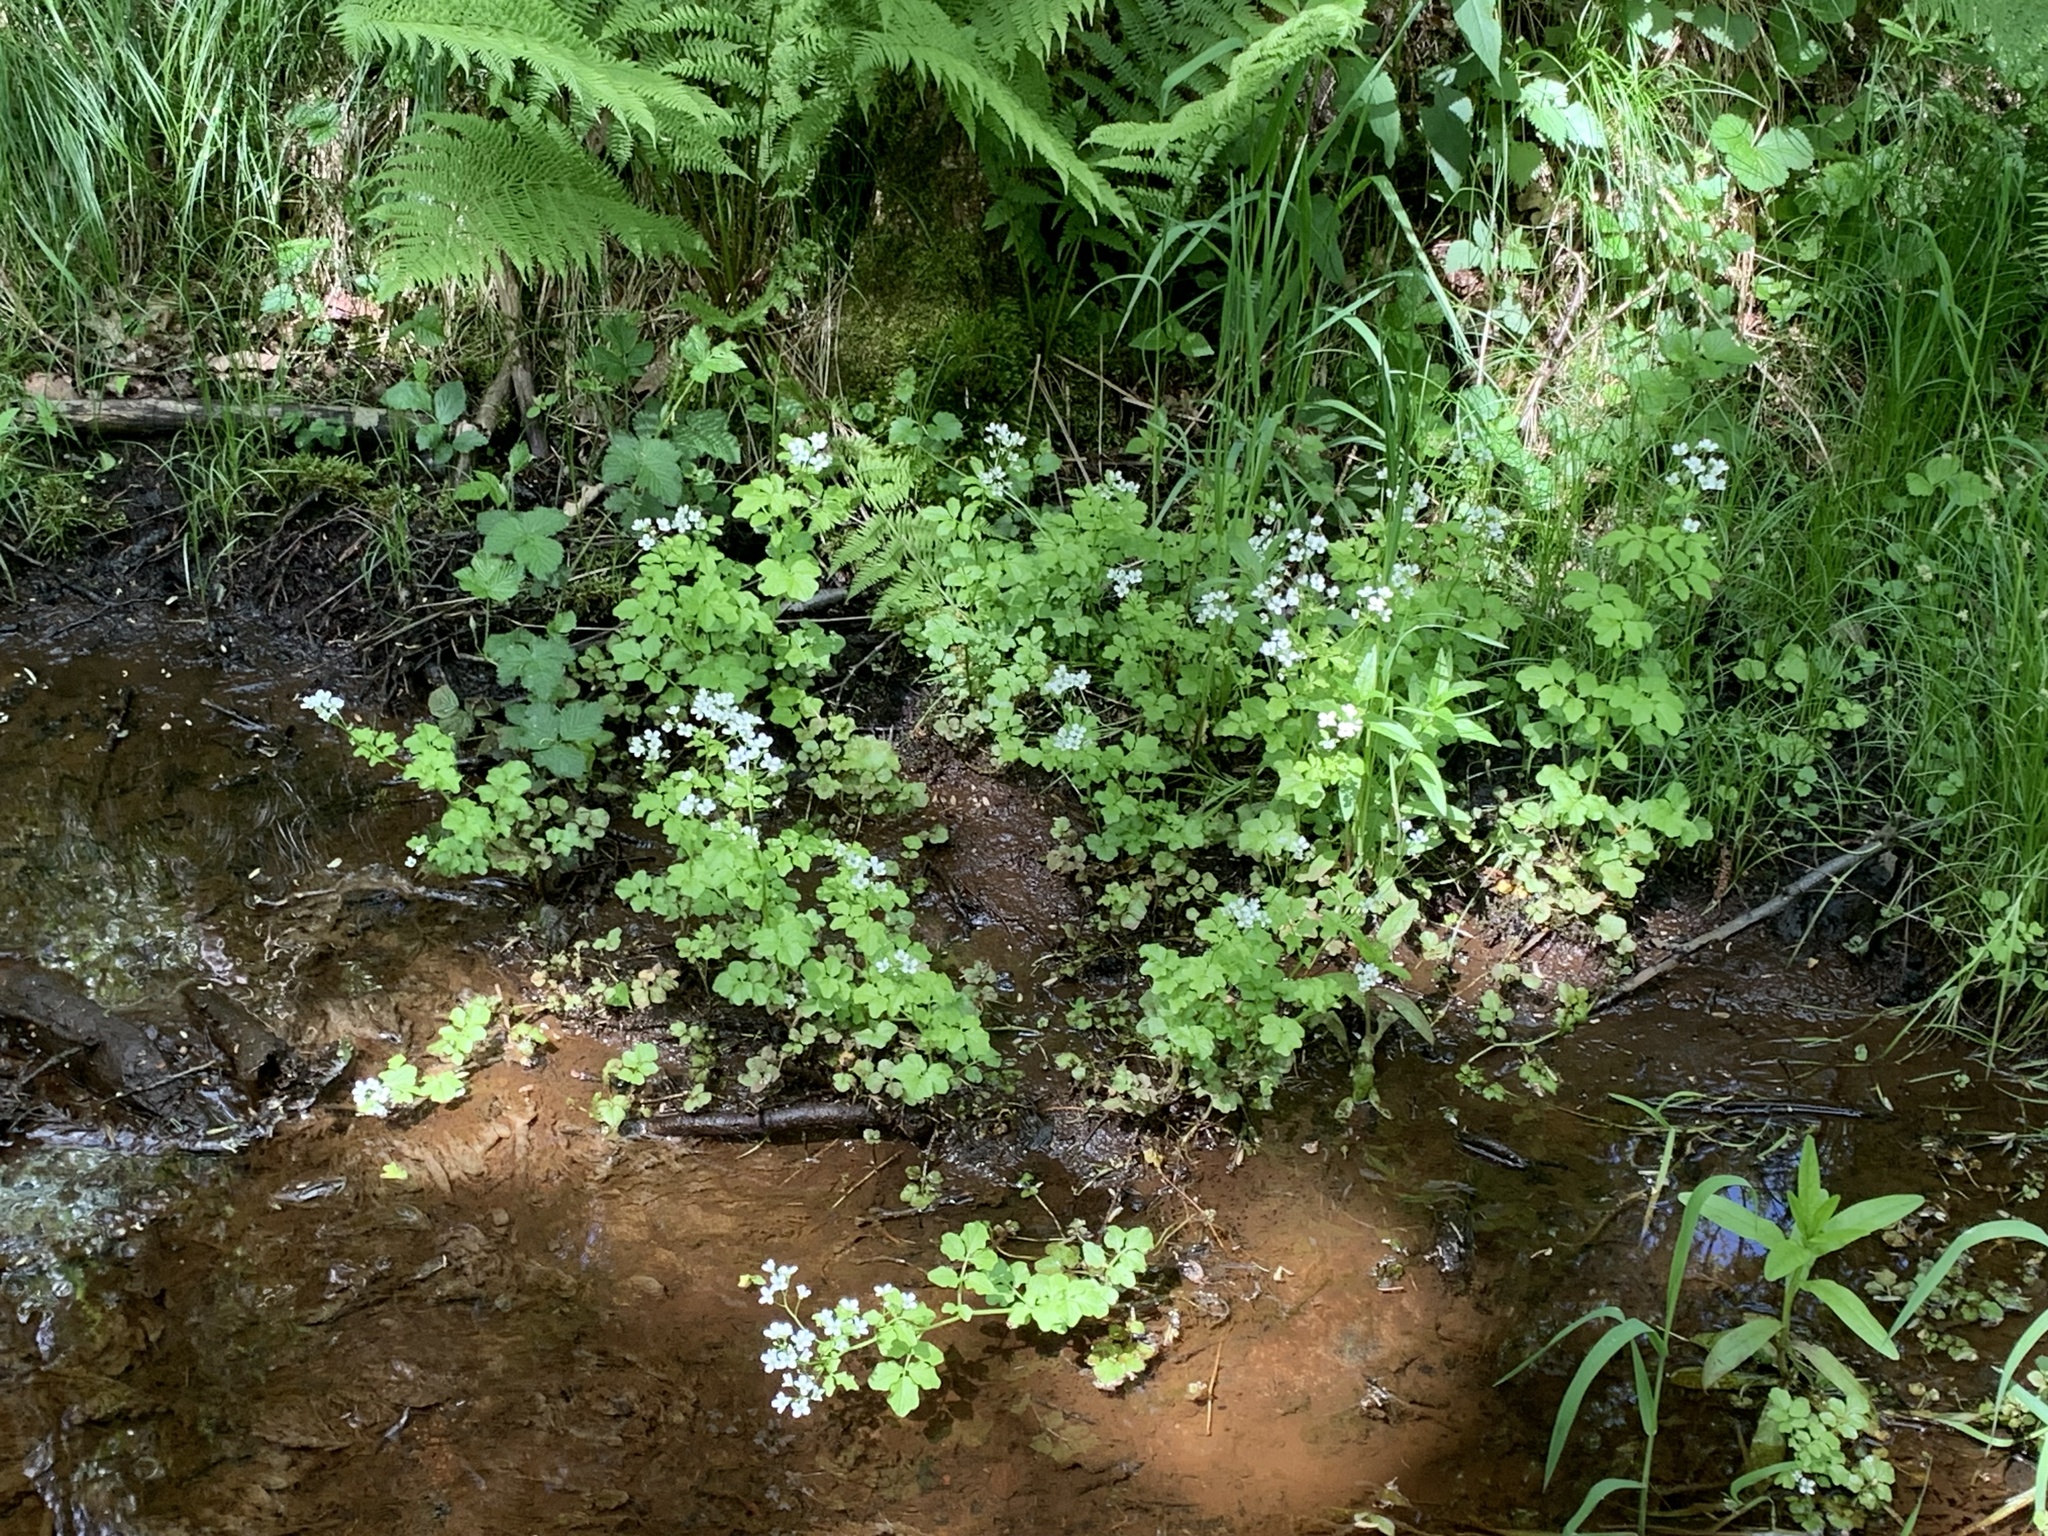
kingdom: Plantae
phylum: Tracheophyta
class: Magnoliopsida
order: Brassicales
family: Brassicaceae
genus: Cardamine
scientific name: Cardamine amara
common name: Large bitter-cress
